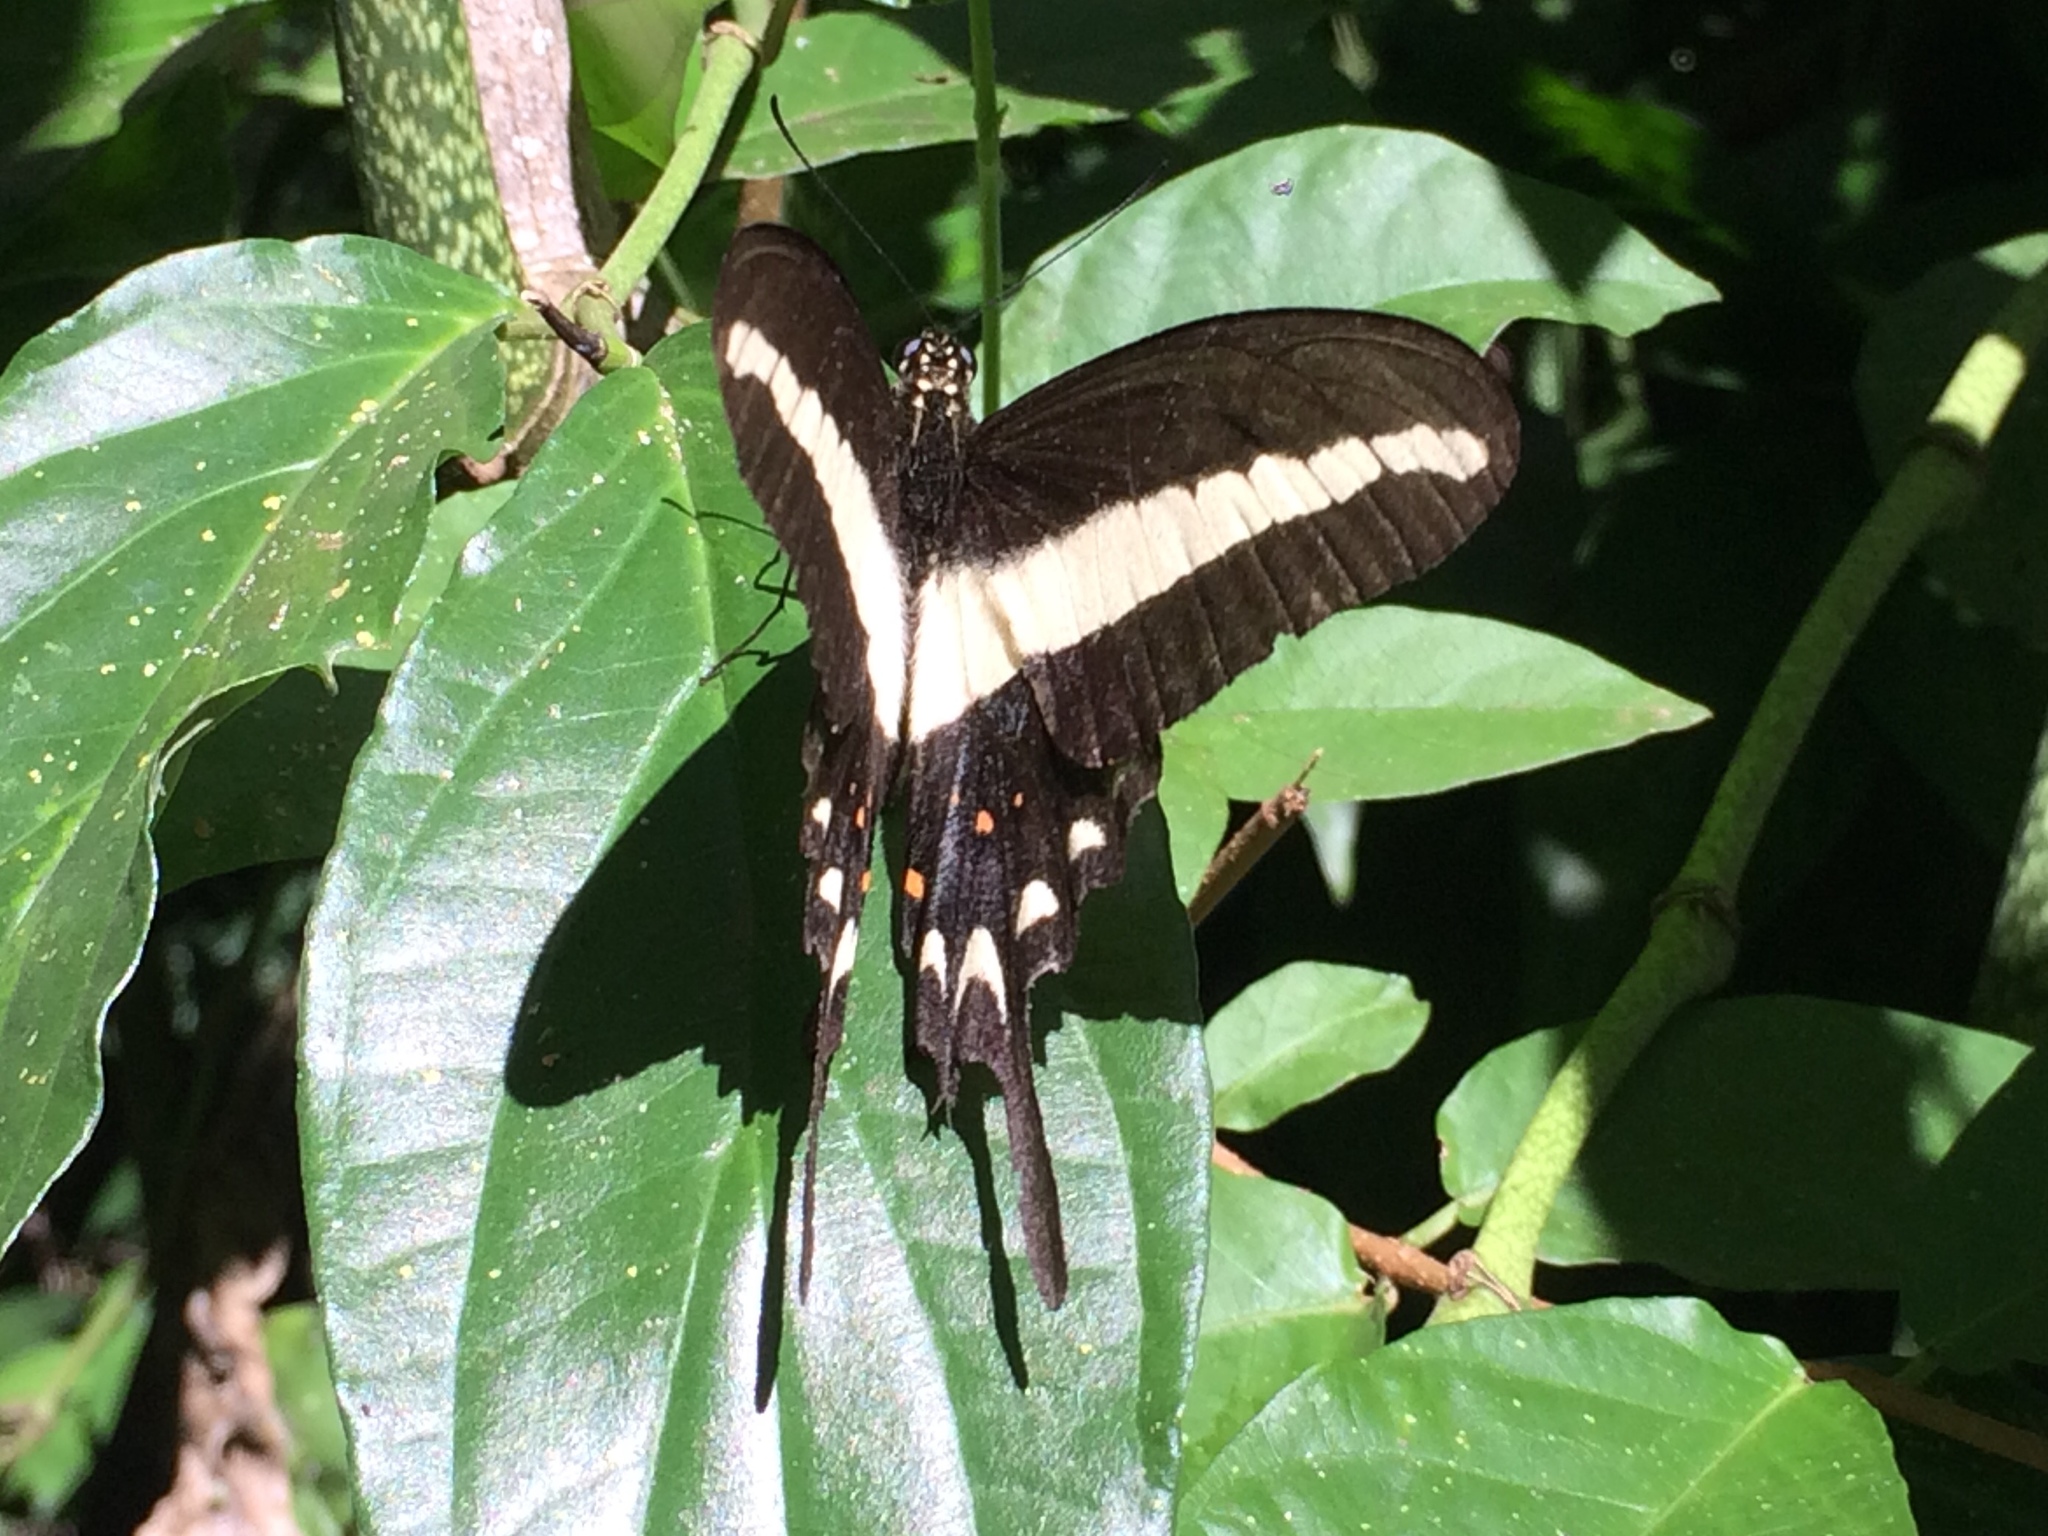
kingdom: Animalia
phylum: Arthropoda
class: Insecta
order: Lepidoptera
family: Papilionidae
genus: Heraclides
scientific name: Heraclides hectorides
